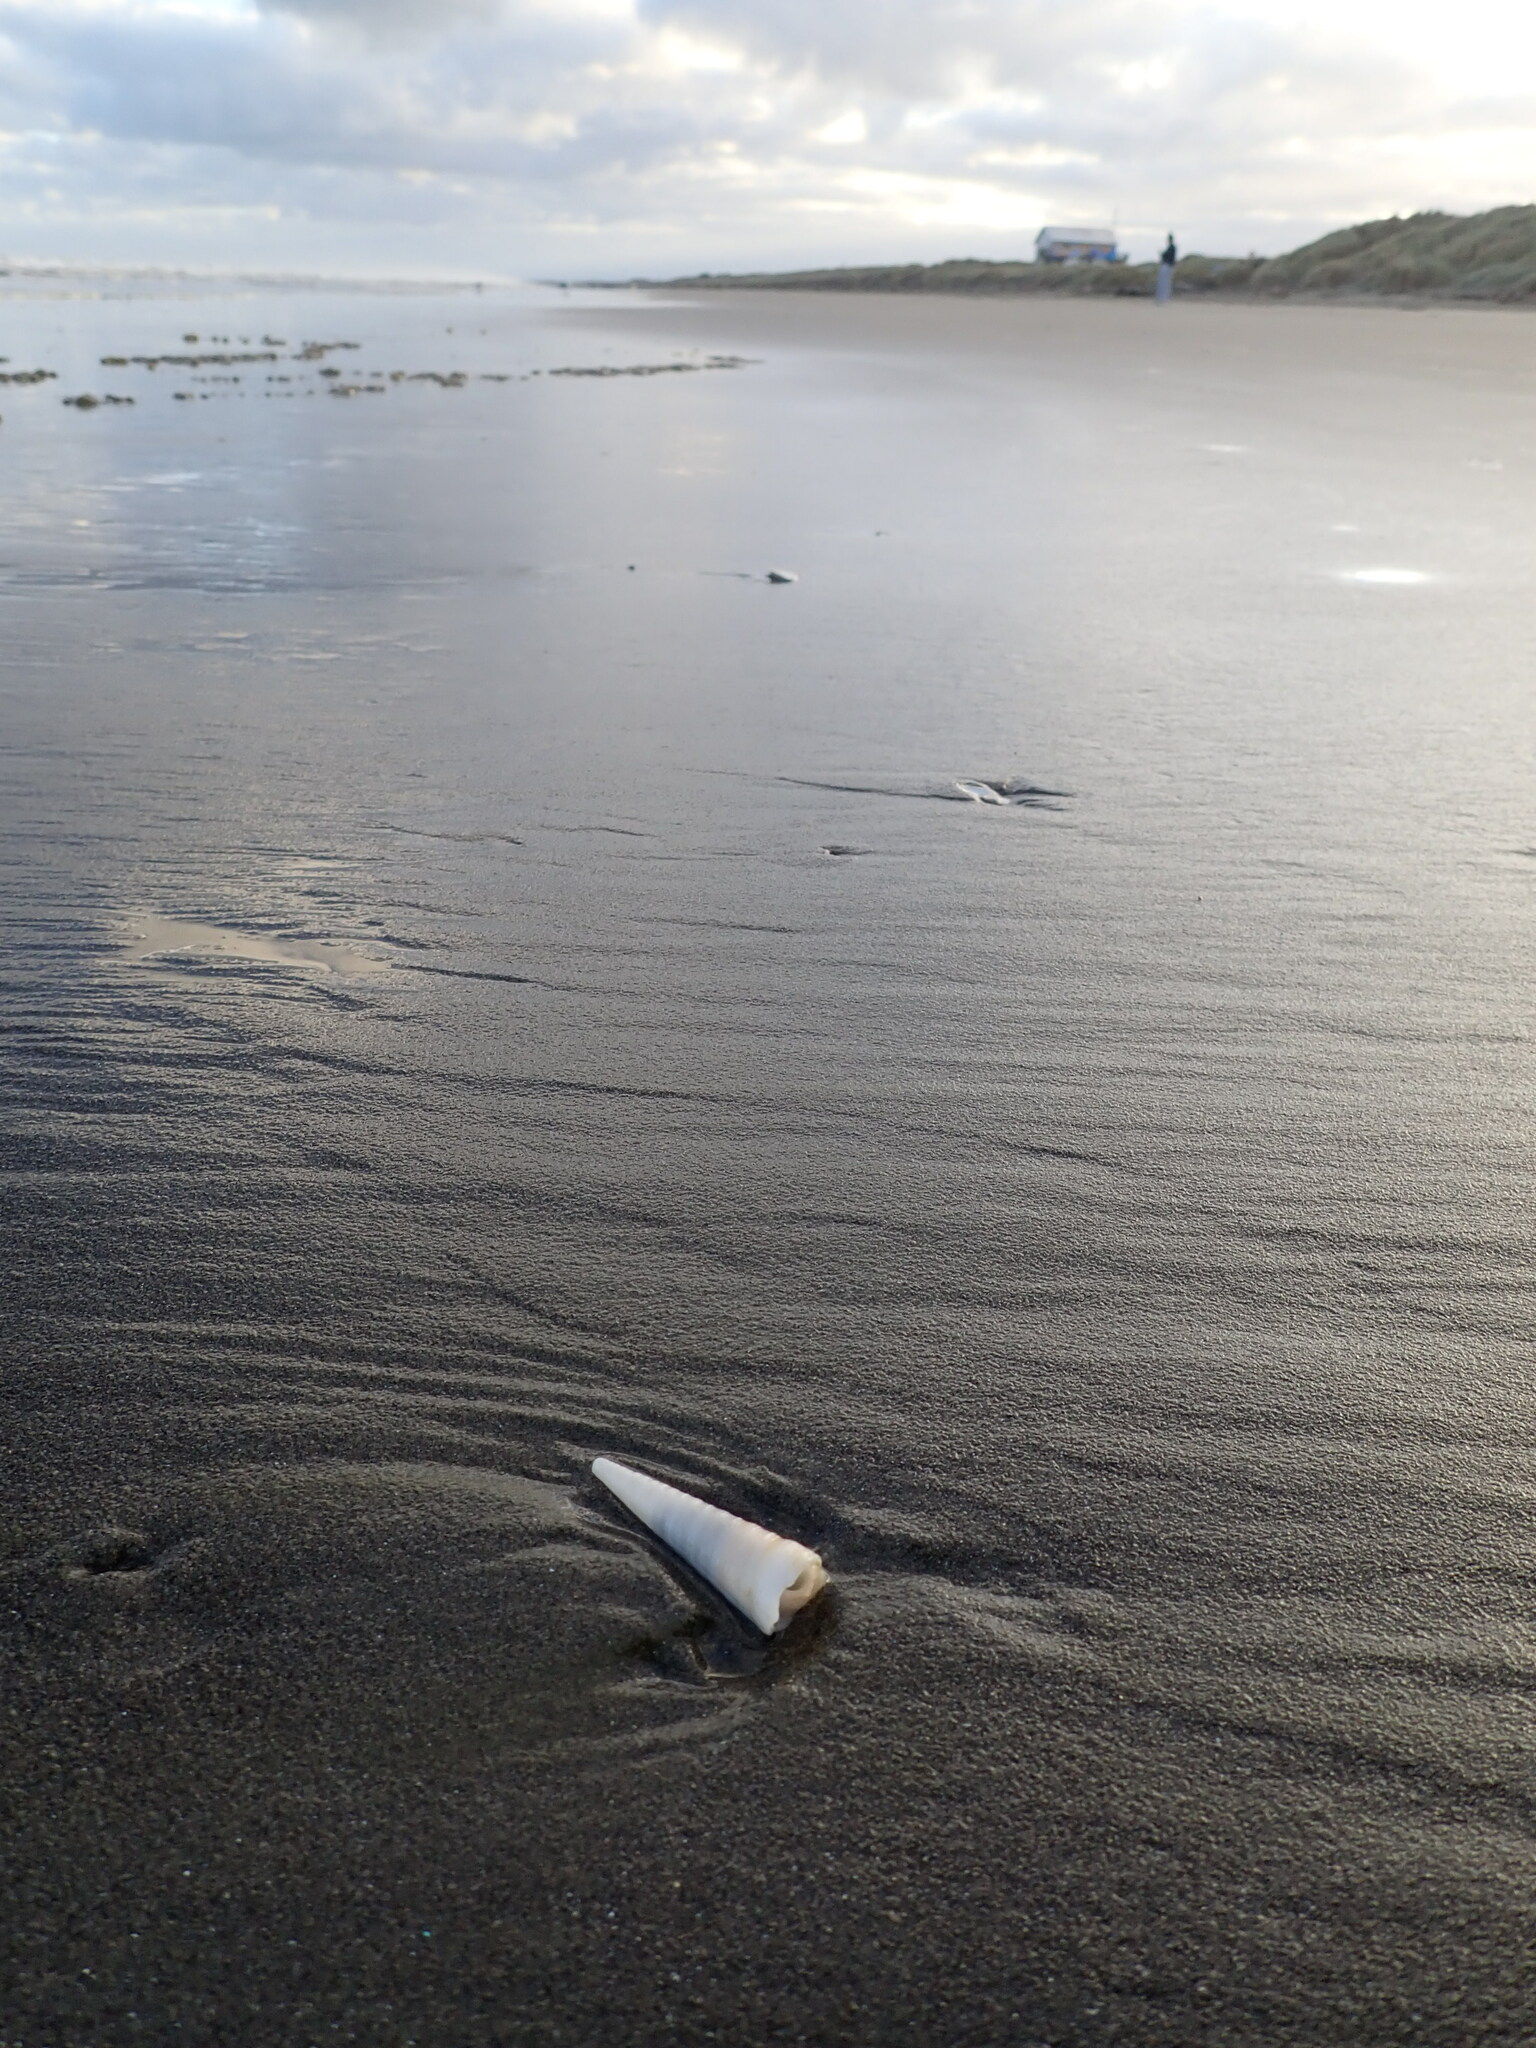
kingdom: Animalia
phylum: Mollusca
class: Gastropoda
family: Turritellidae
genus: Maoricolpus
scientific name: Maoricolpus roseus
